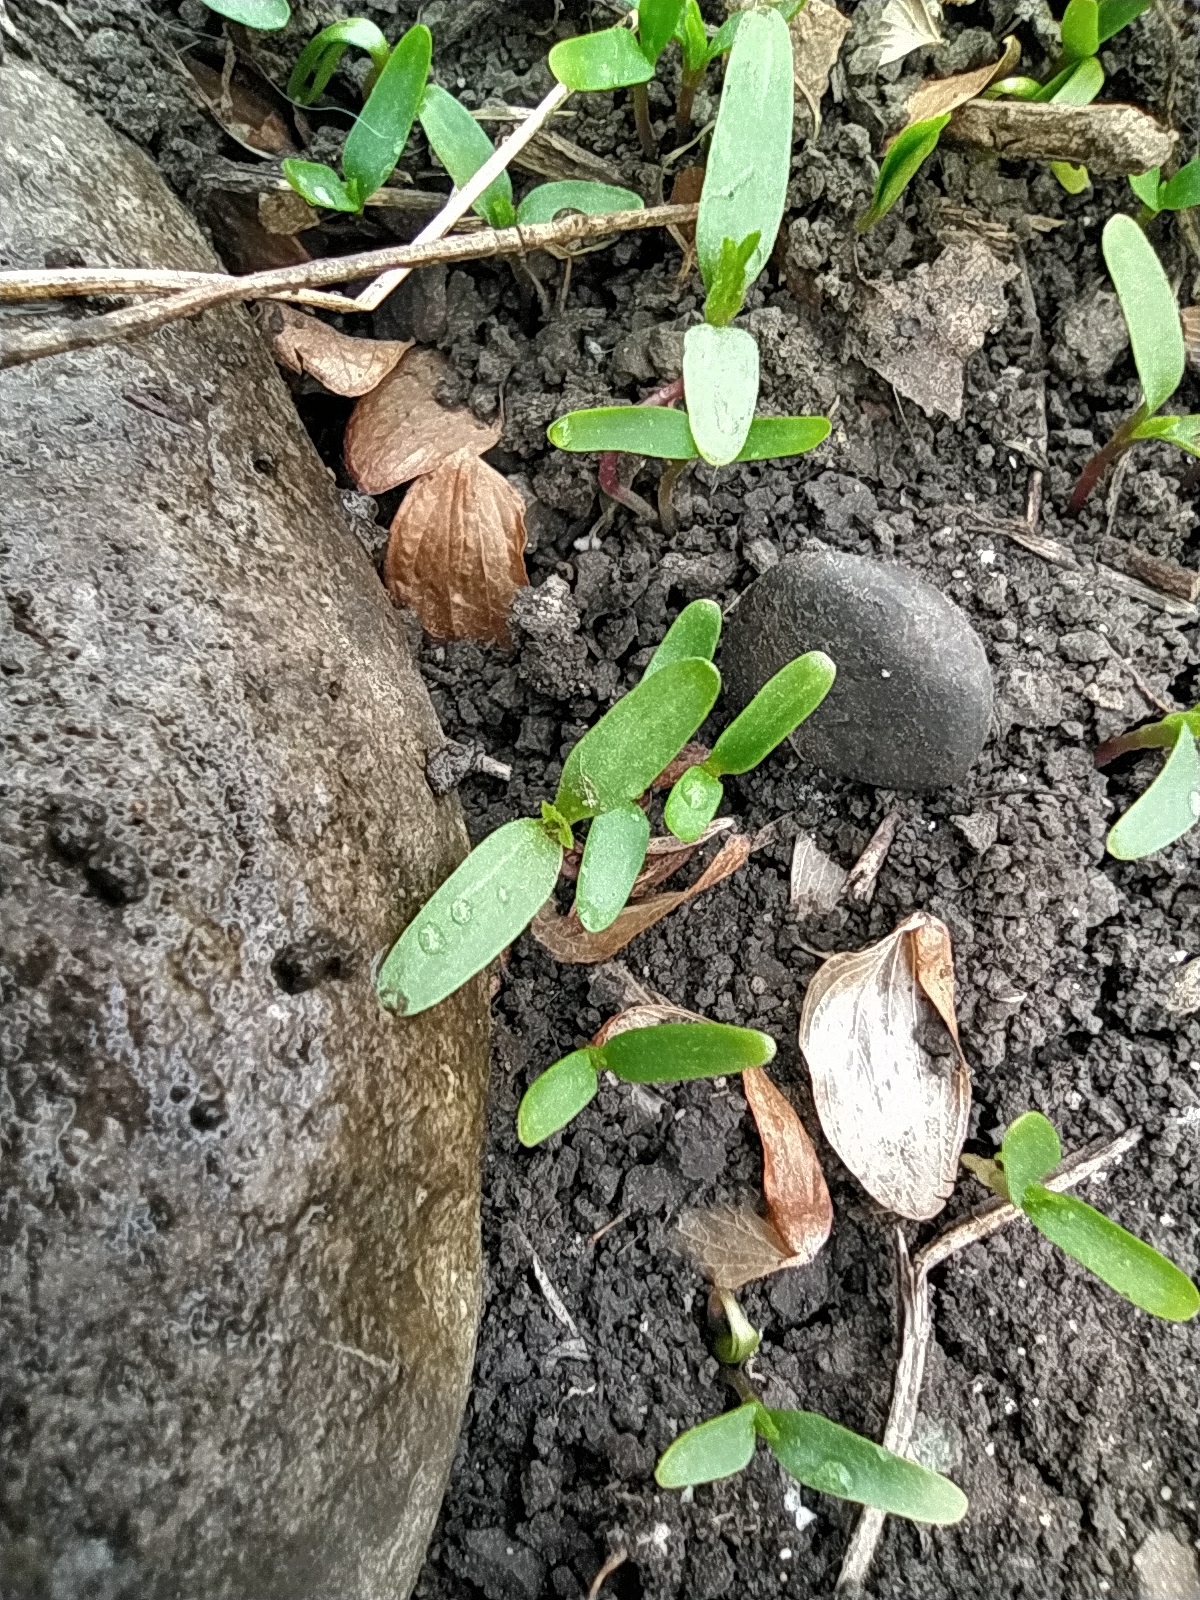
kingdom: Plantae
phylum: Tracheophyta
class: Magnoliopsida
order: Rosales
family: Cannabaceae
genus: Humulus
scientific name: Humulus lupulus
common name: Hop
